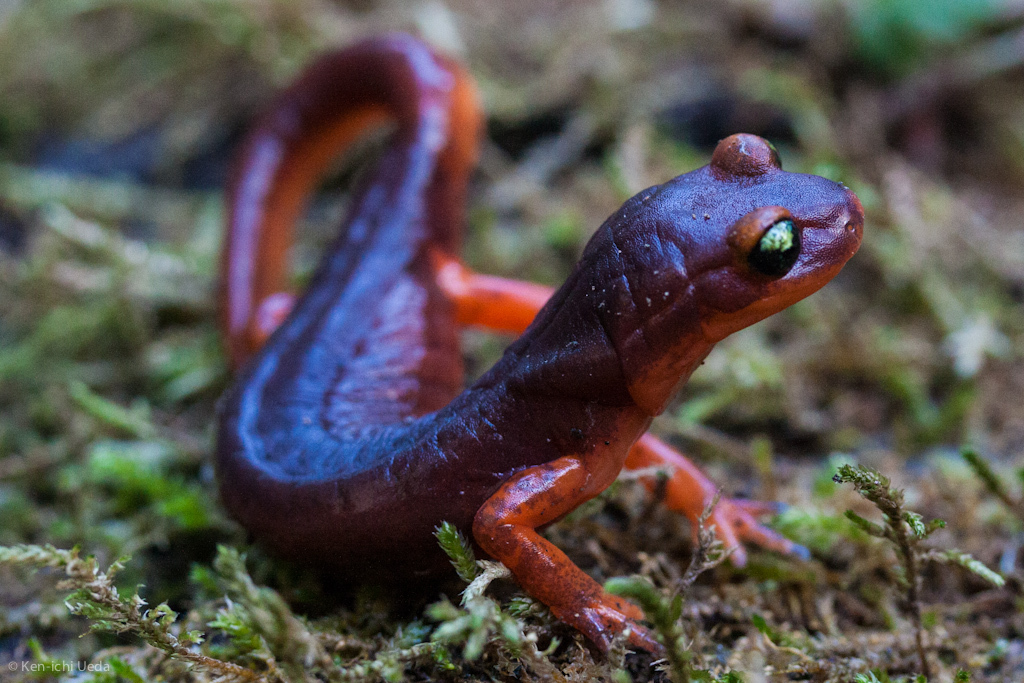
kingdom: Animalia
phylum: Chordata
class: Amphibia
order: Caudata
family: Plethodontidae
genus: Ensatina
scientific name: Ensatina eschscholtzii
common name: Ensatina
